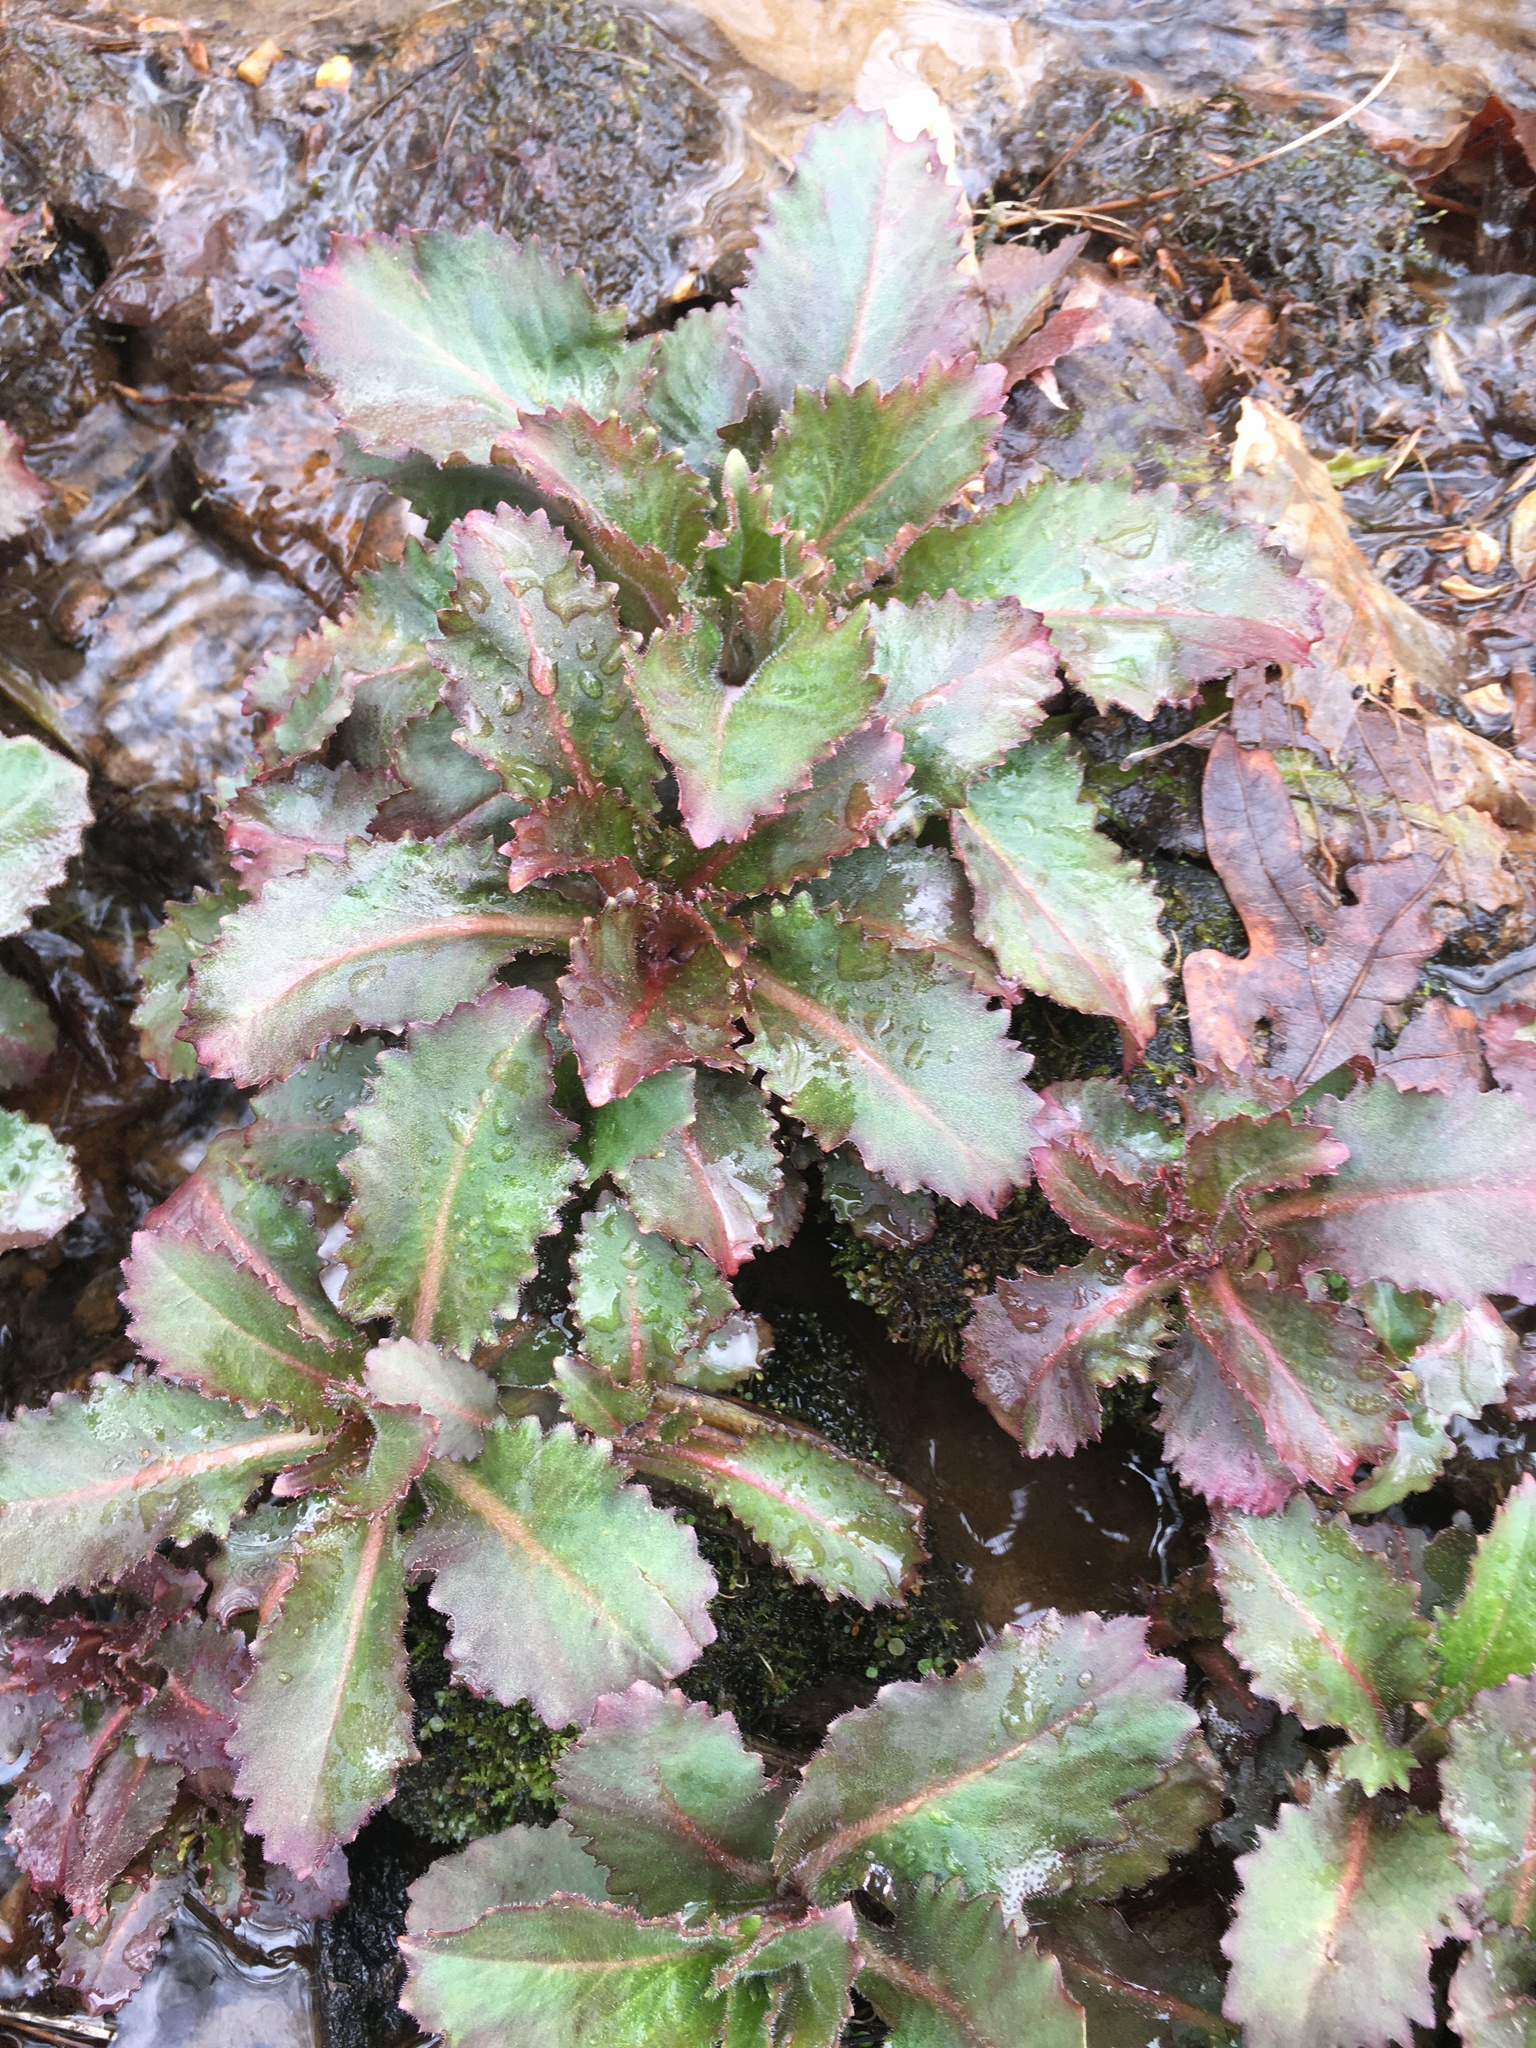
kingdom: Plantae
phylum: Tracheophyta
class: Magnoliopsida
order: Saxifragales
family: Saxifragaceae
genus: Micranthes
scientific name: Micranthes micranthidifolia
